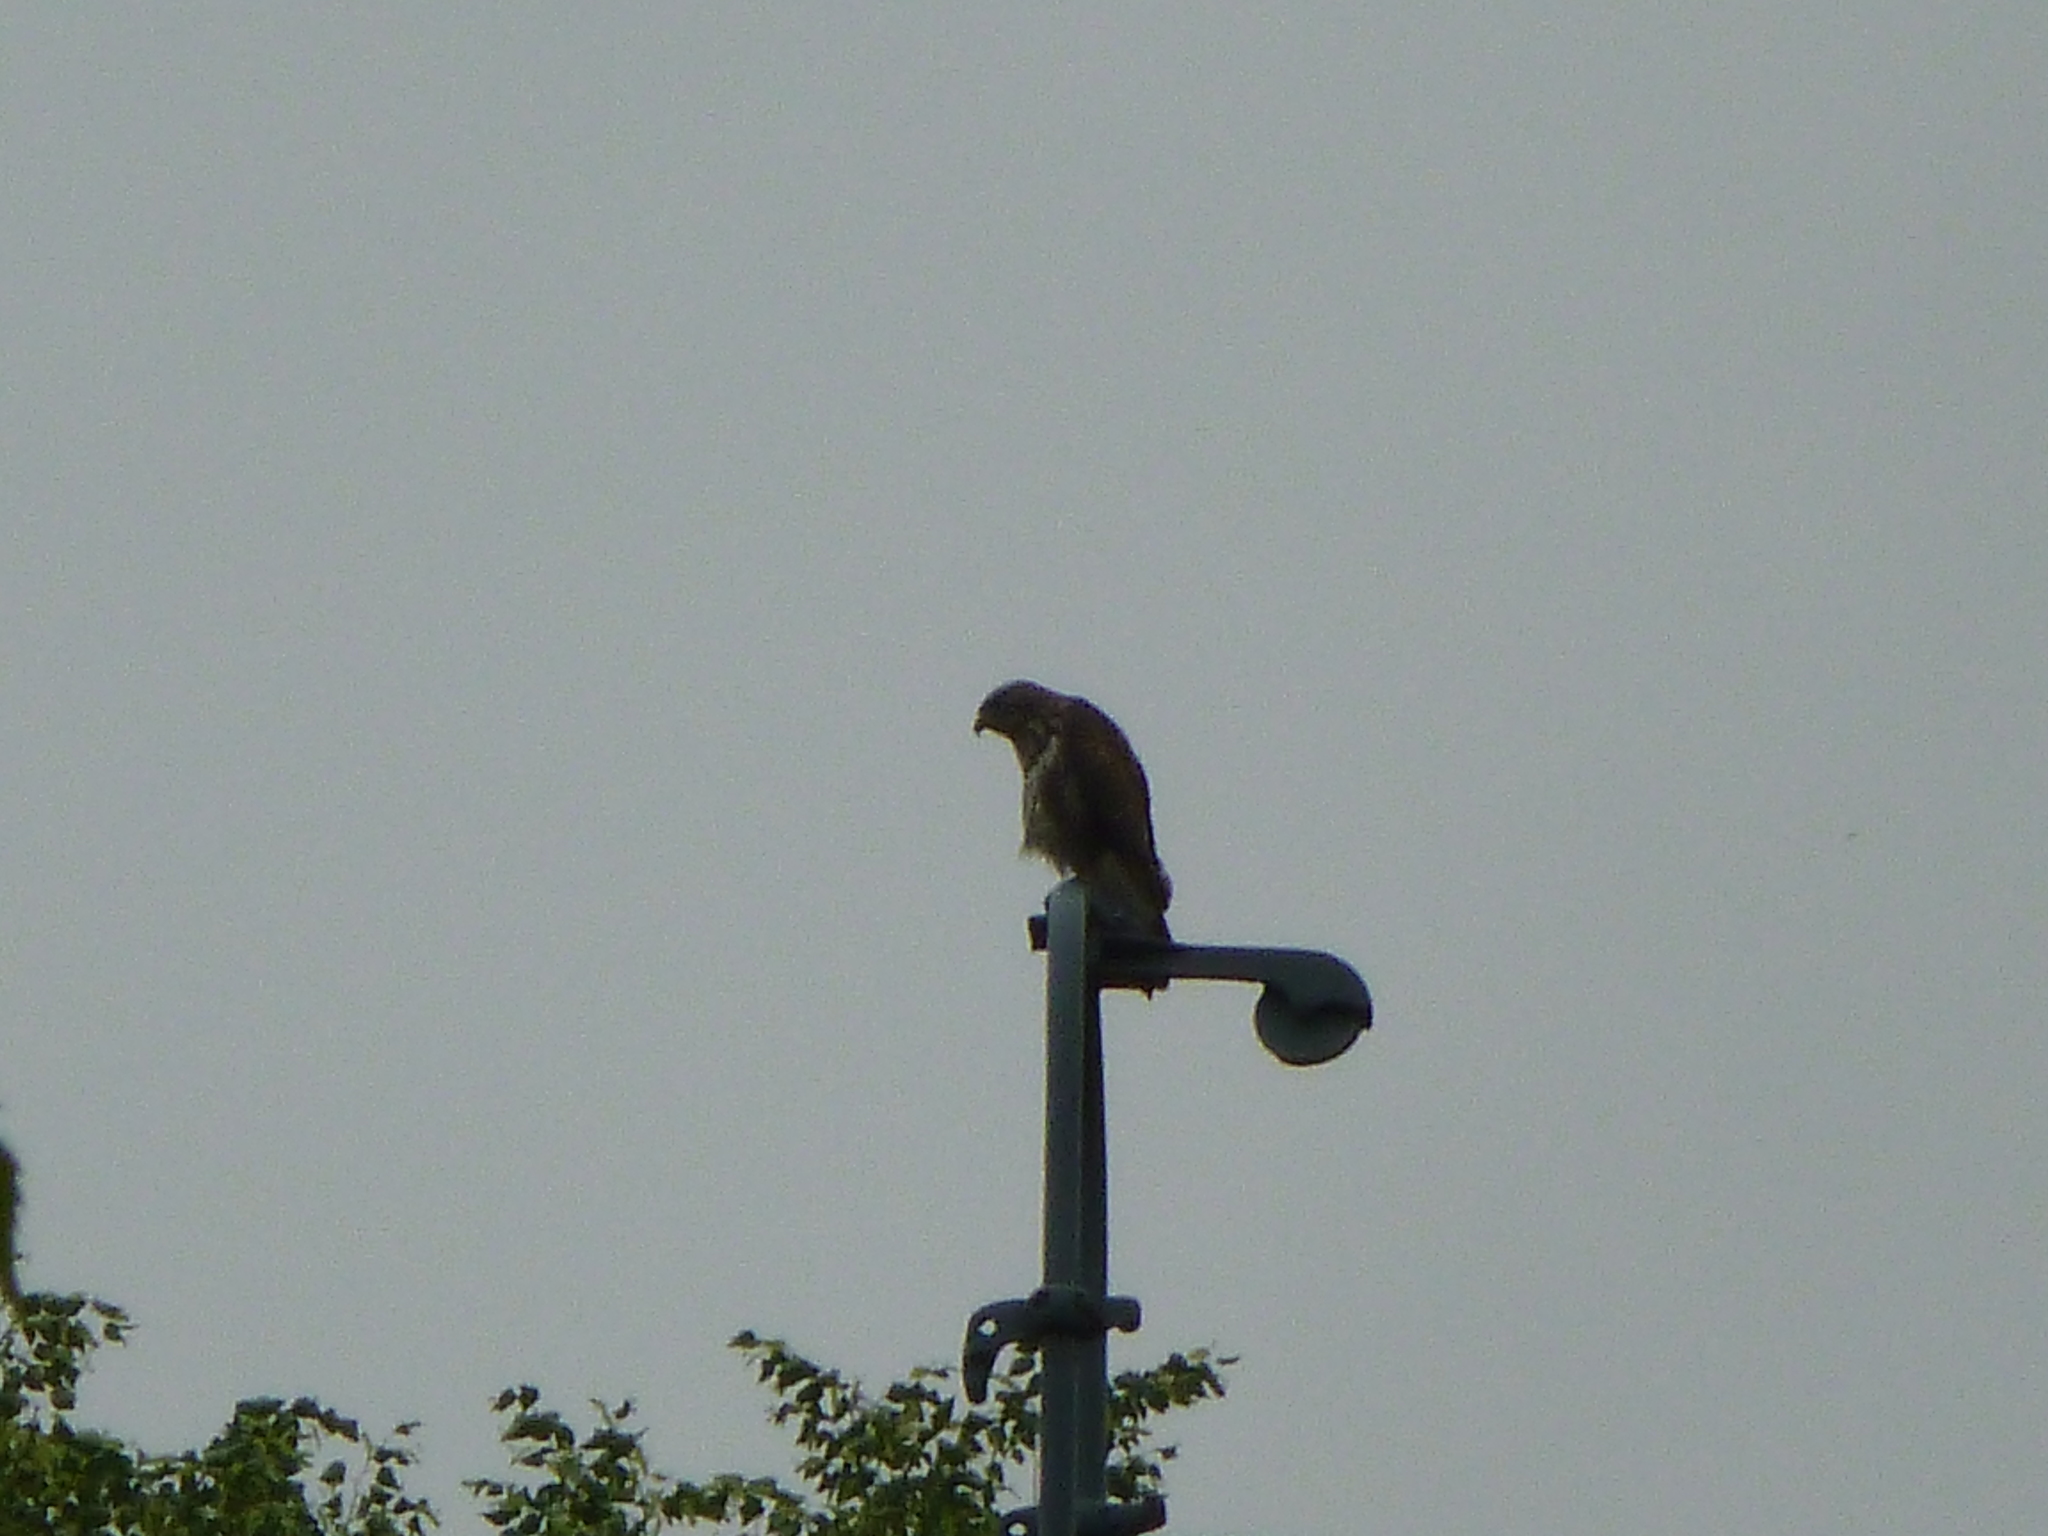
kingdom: Animalia
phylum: Chordata
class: Aves
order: Accipitriformes
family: Accipitridae
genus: Buteo
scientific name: Buteo buteo
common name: Common buzzard
